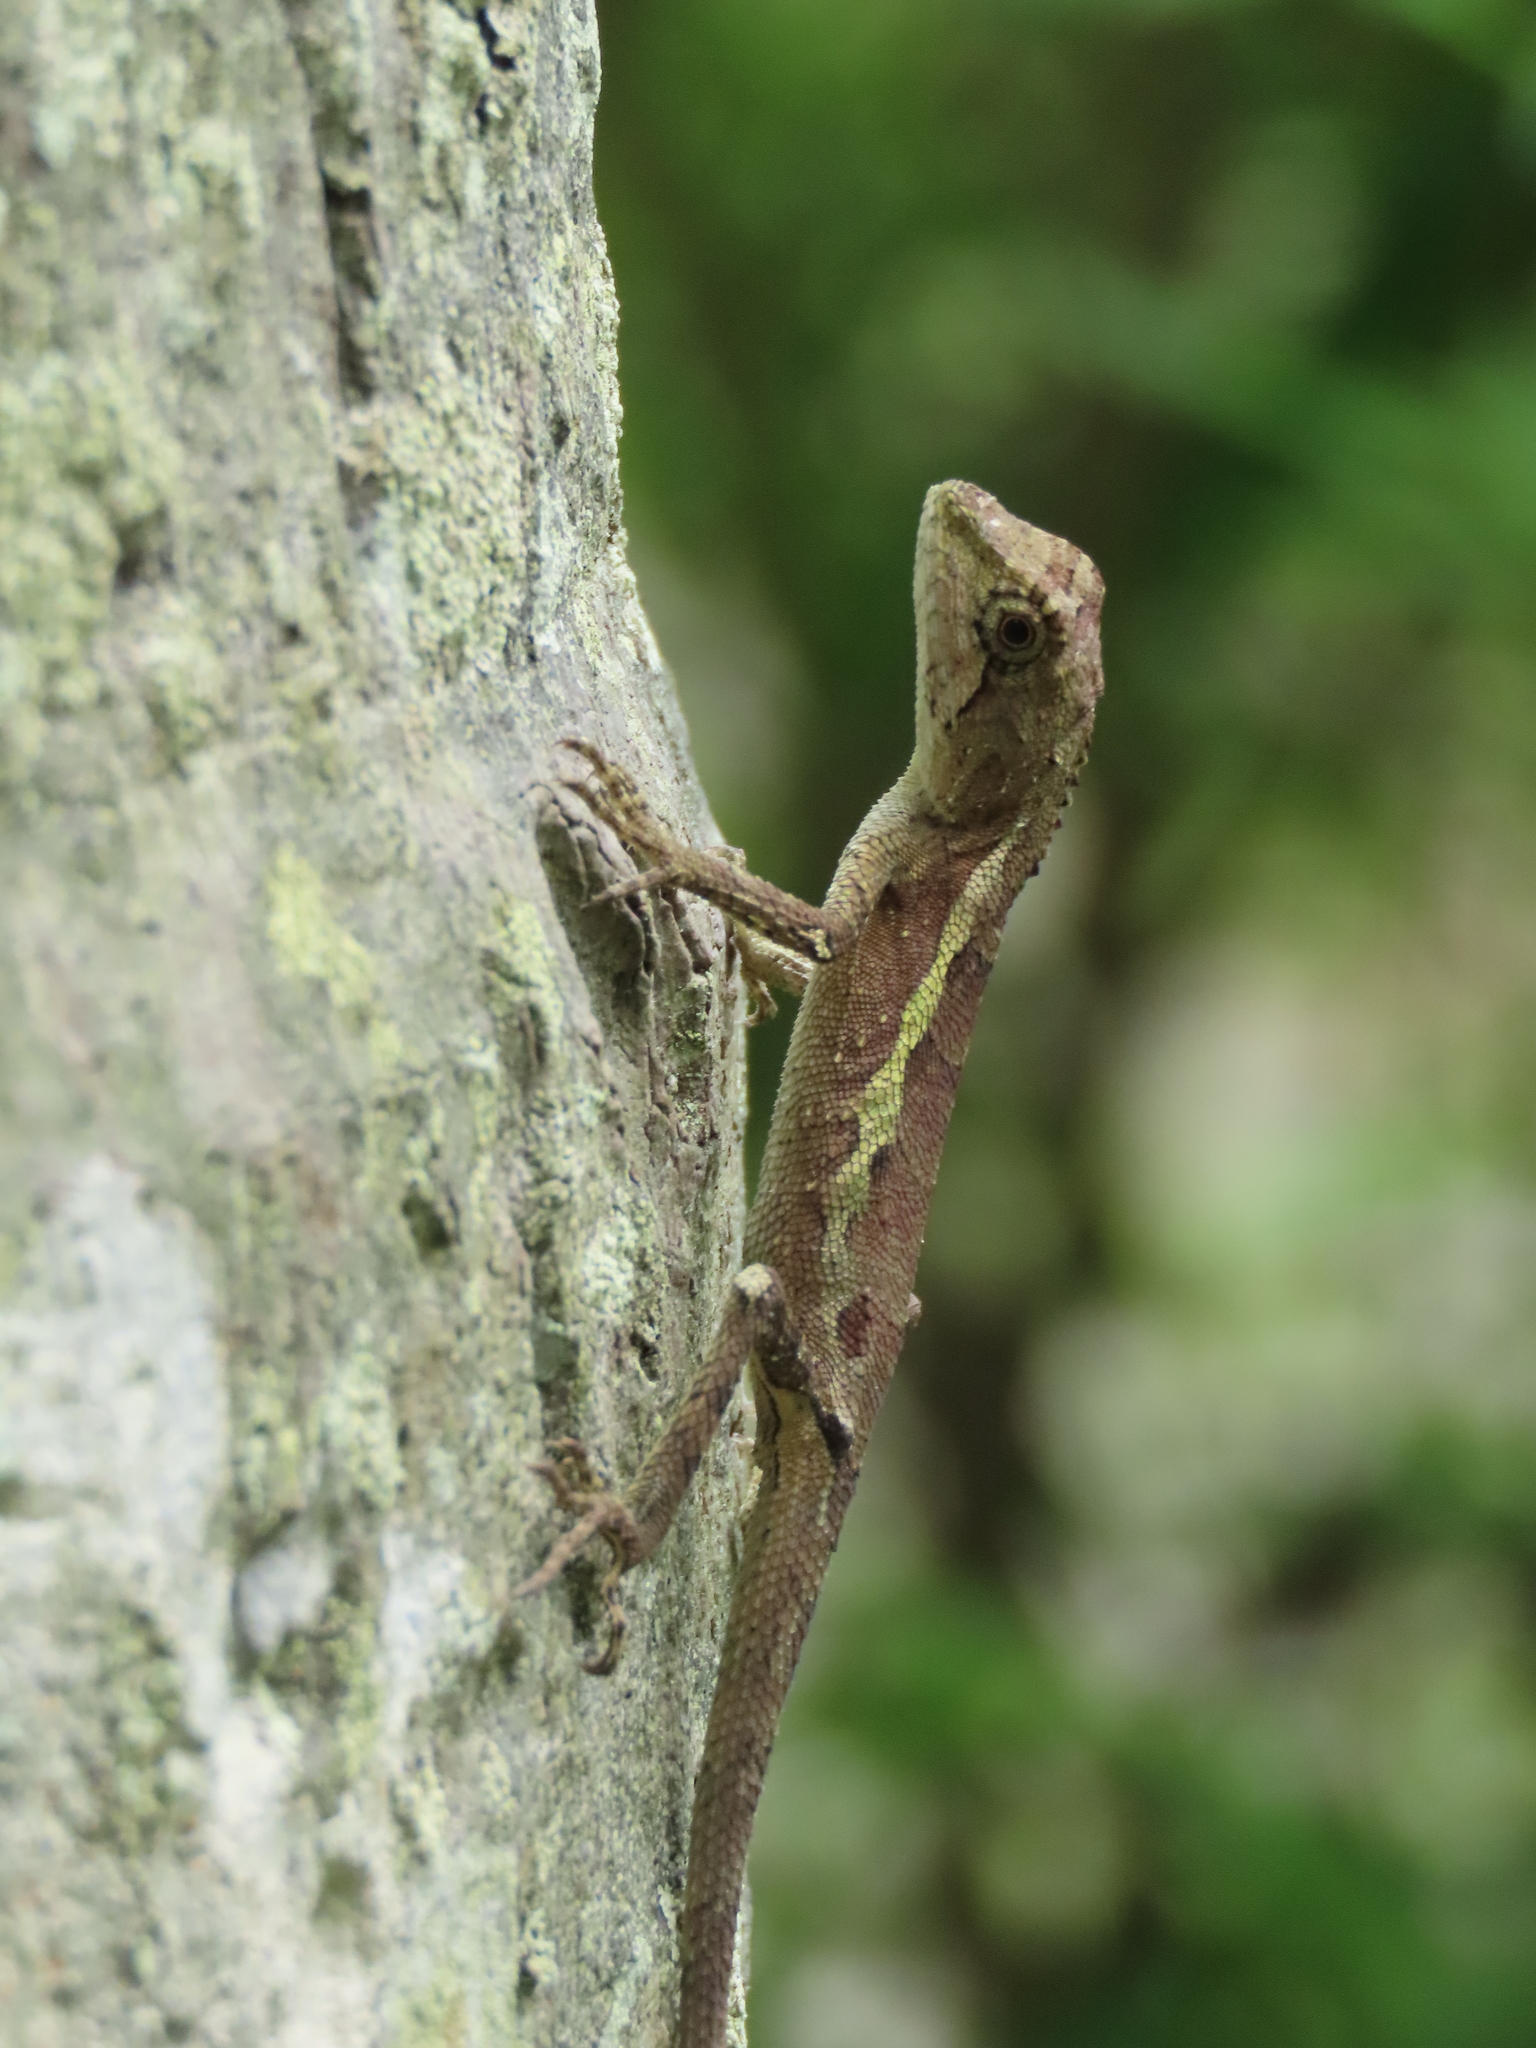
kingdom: Animalia
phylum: Chordata
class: Squamata
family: Agamidae
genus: Diploderma
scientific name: Diploderma swinhonis
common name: Taiwan japalure
